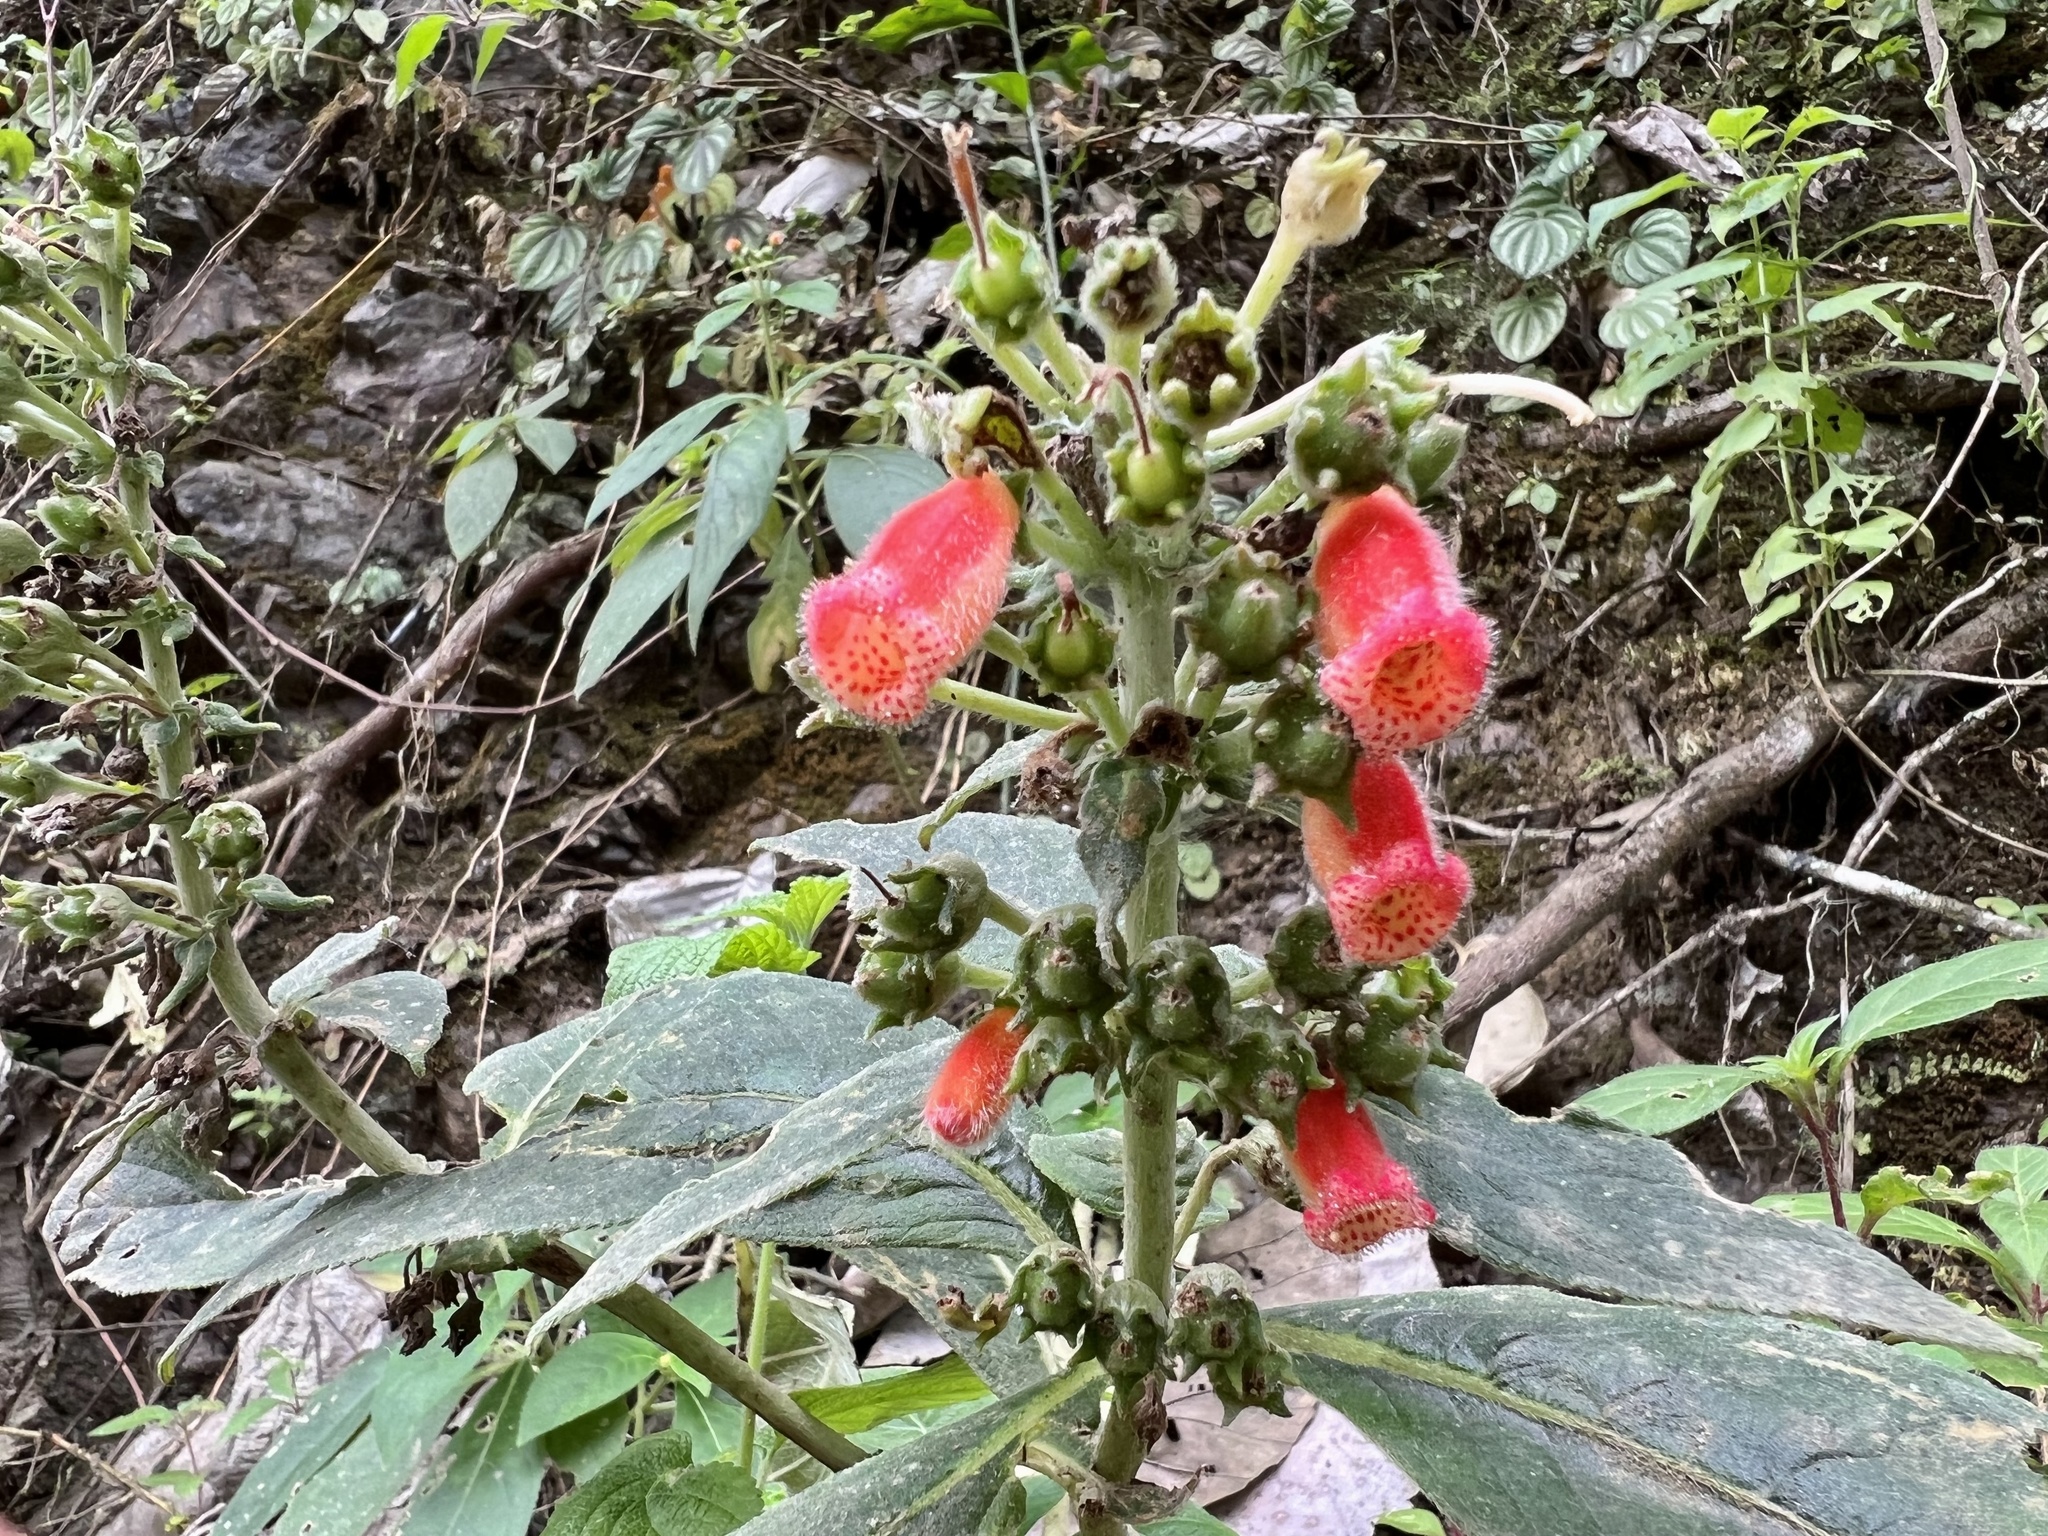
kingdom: Plantae
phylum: Tracheophyta
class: Magnoliopsida
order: Lamiales
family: Gesneriaceae
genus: Kohleria
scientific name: Kohleria spicata
